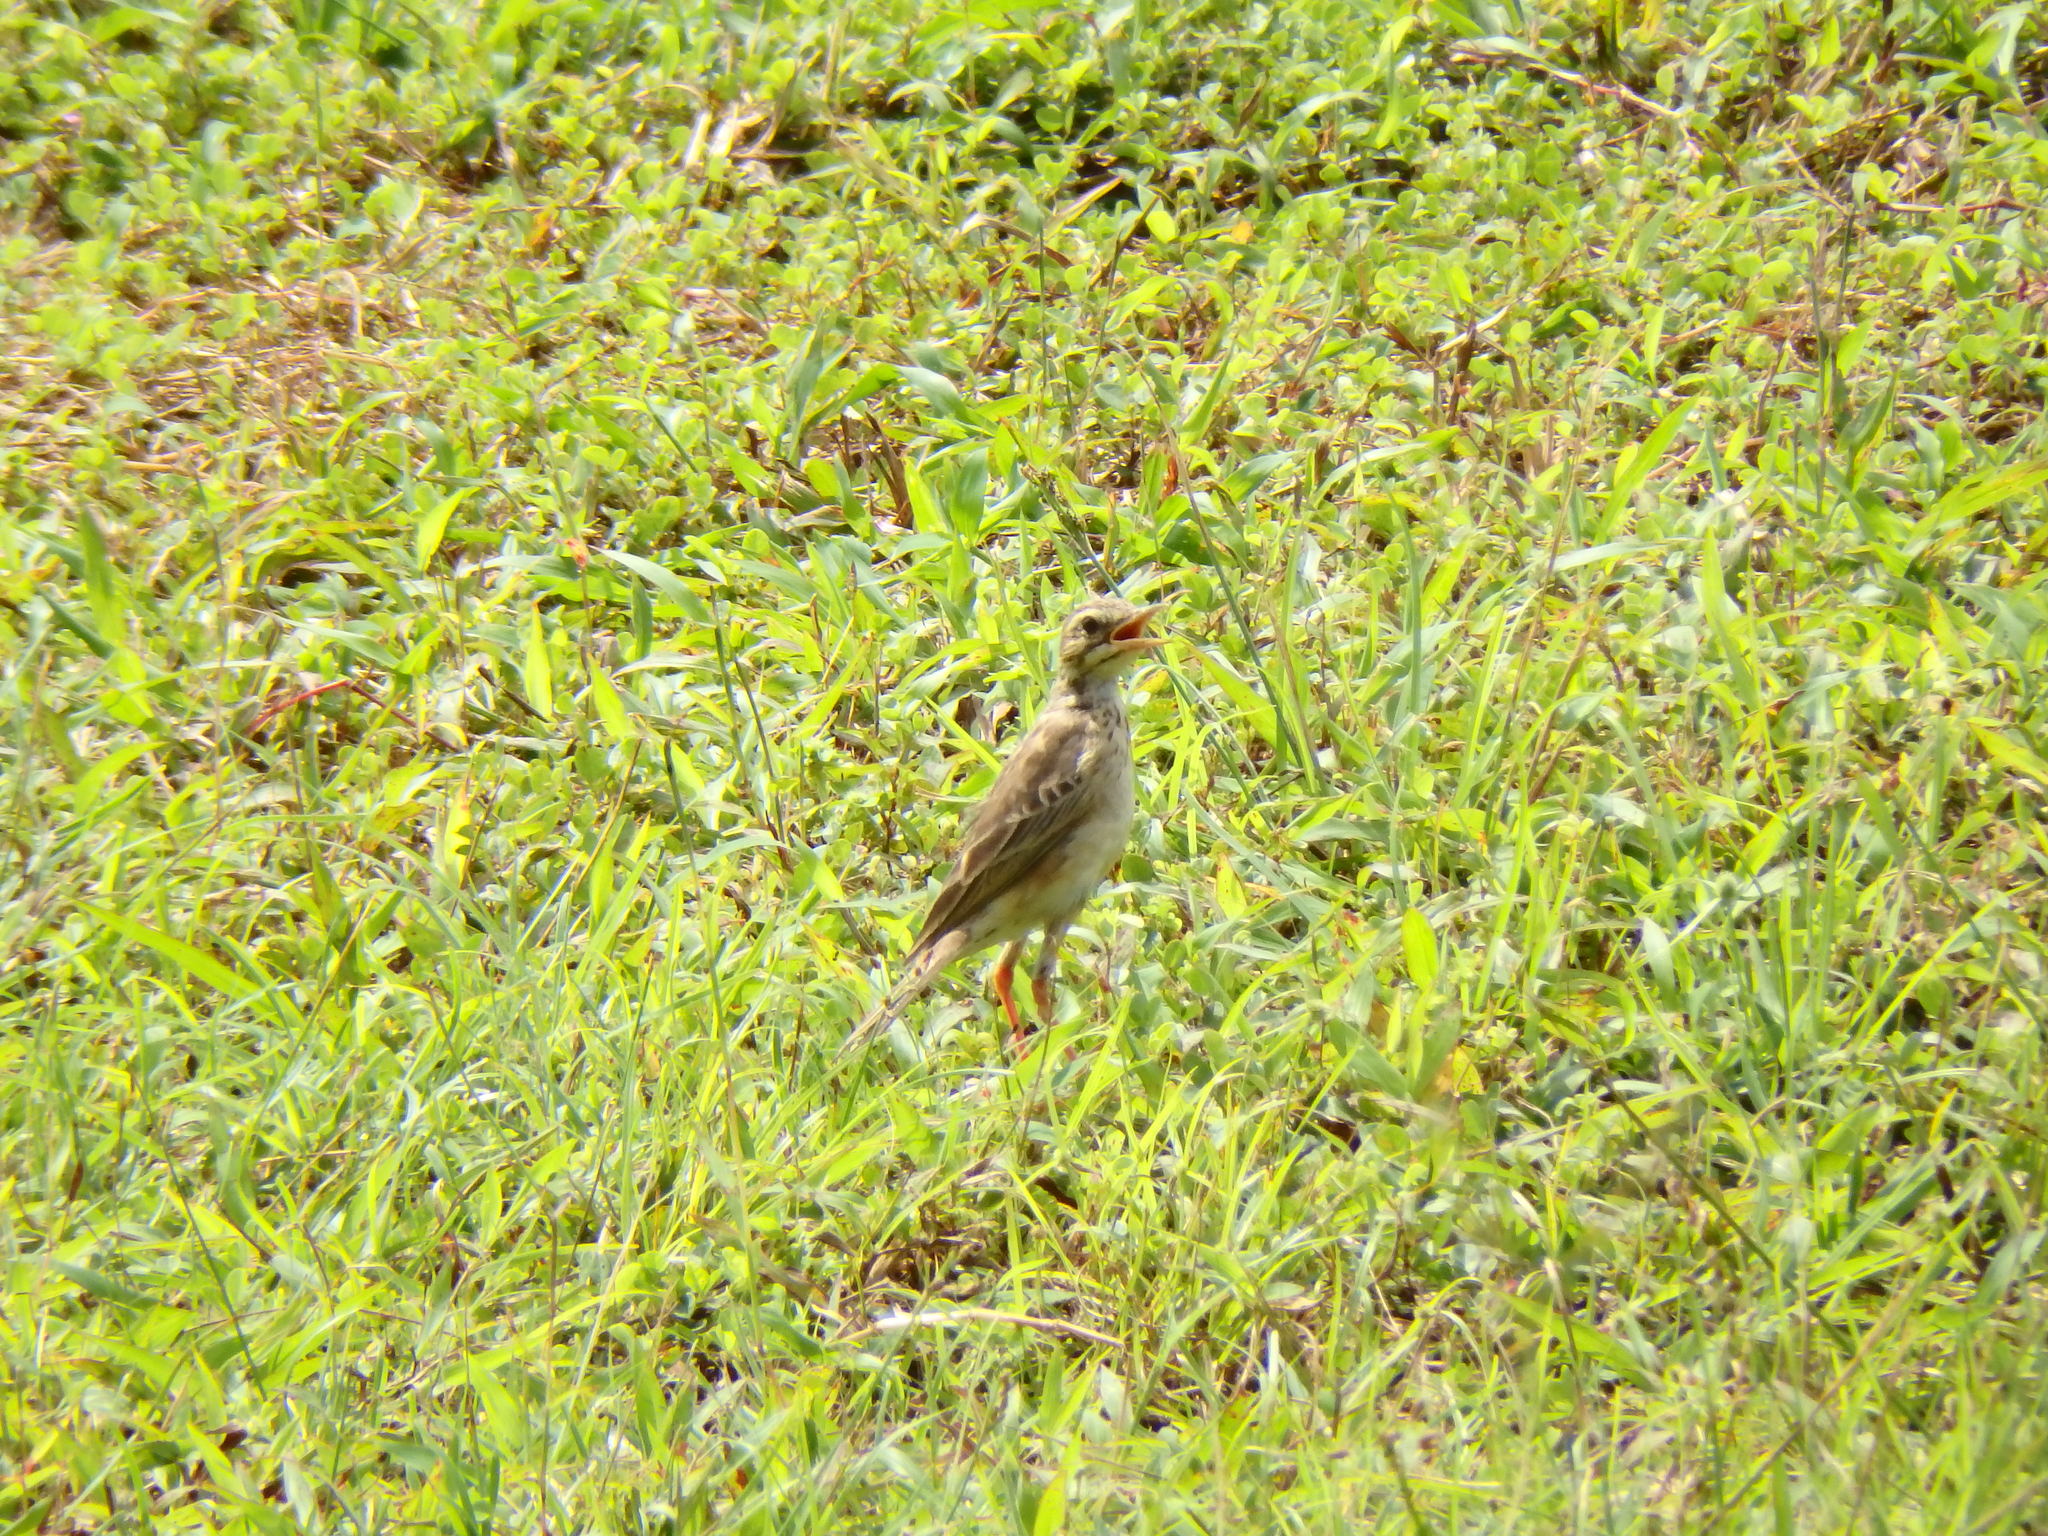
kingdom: Animalia
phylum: Chordata
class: Aves
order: Passeriformes
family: Motacillidae
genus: Anthus
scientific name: Anthus rufulus
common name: Paddyfield pipit
